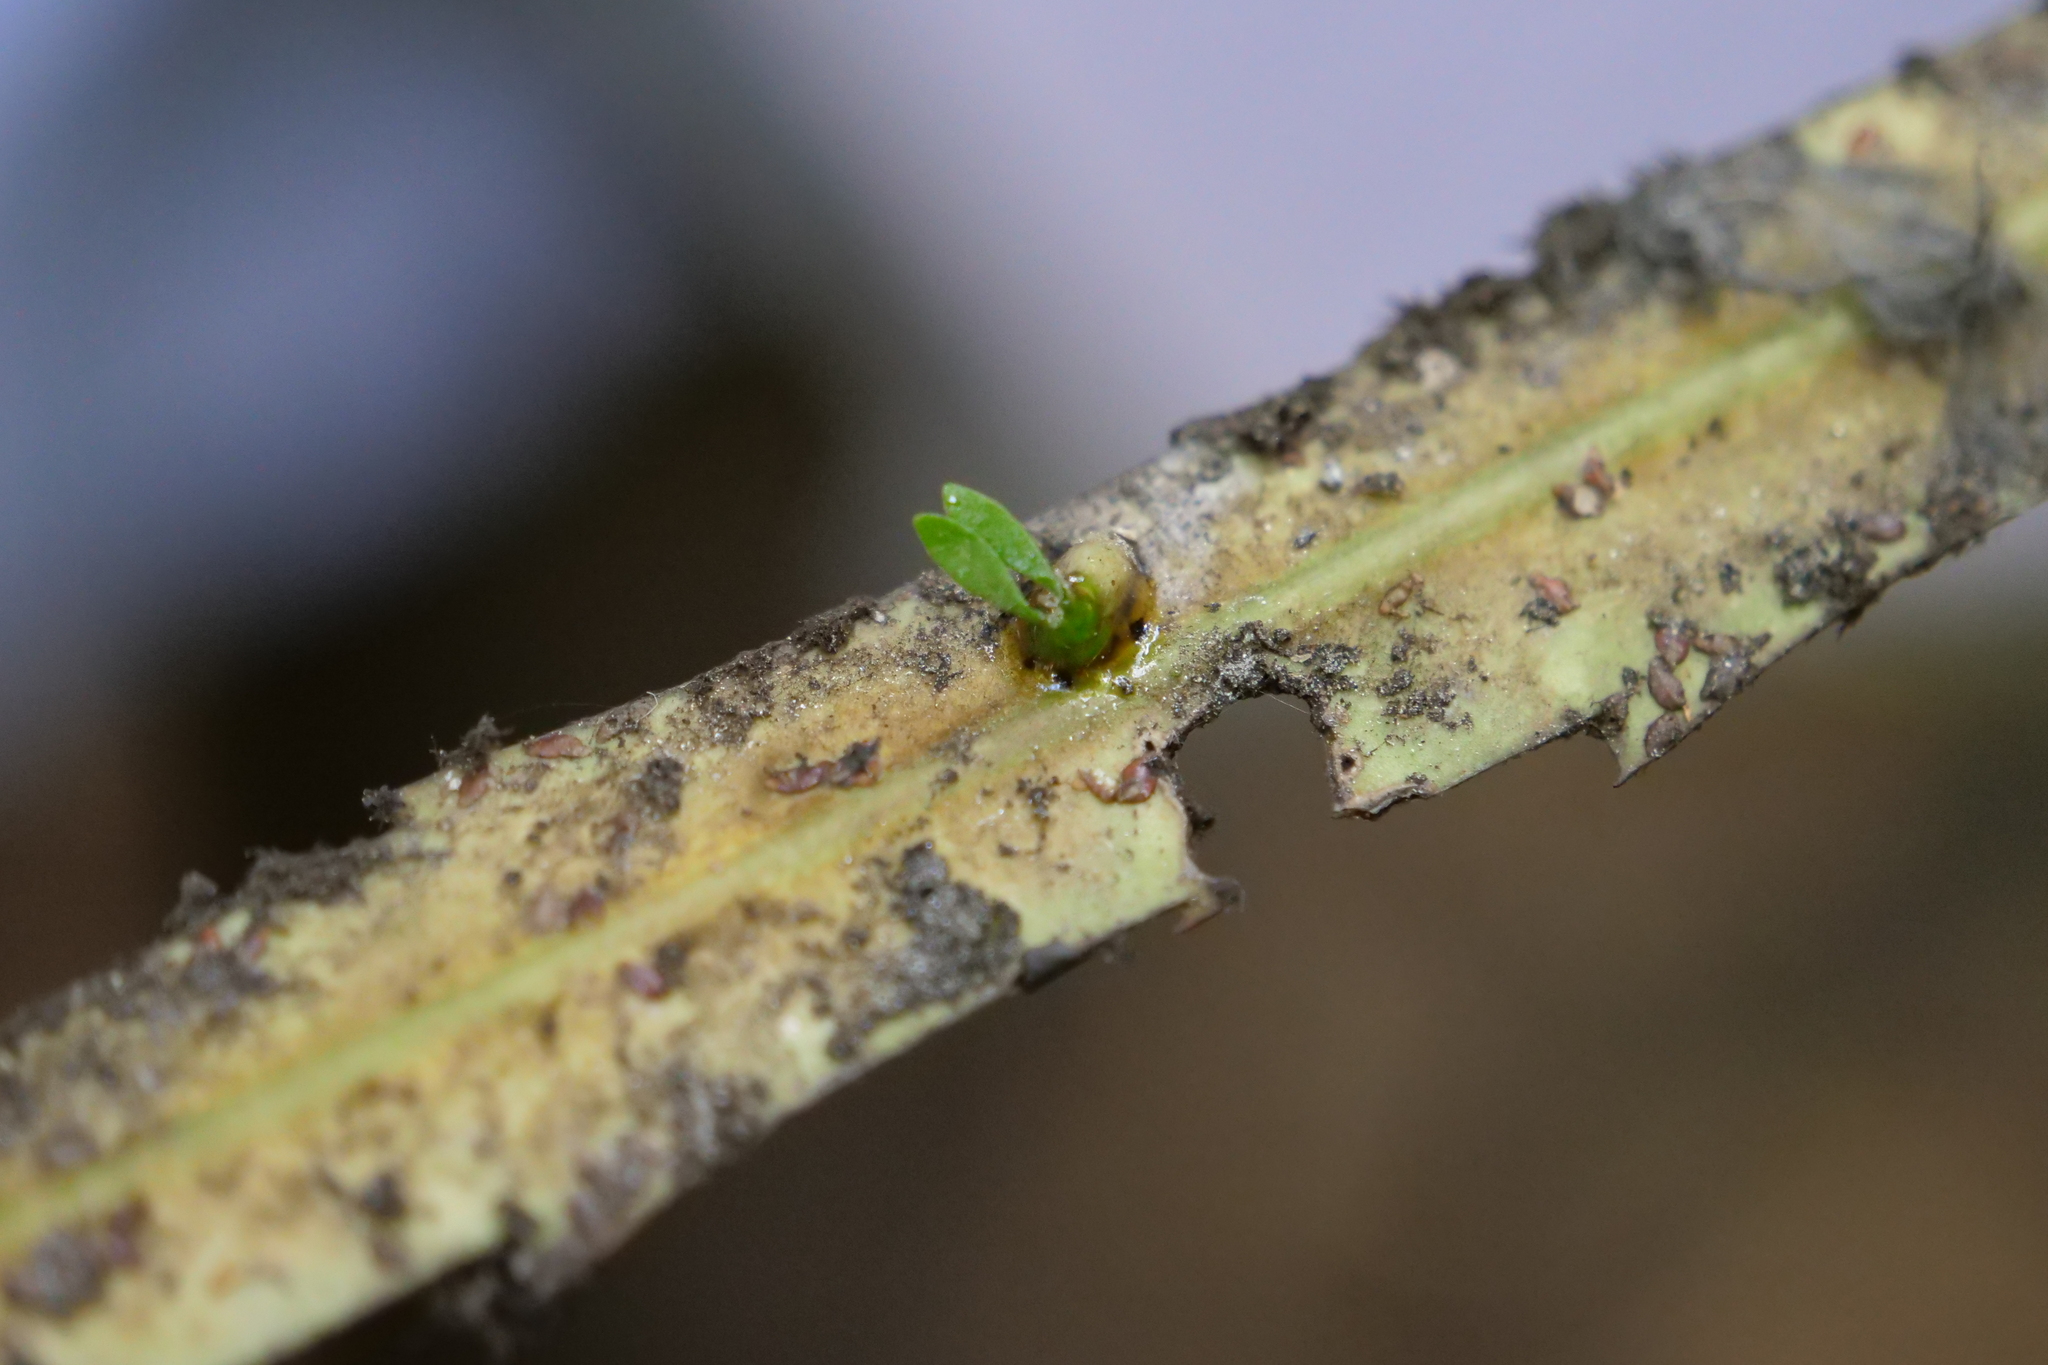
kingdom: Plantae
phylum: Tracheophyta
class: Magnoliopsida
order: Santalales
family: Loranthaceae
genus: Ileostylus
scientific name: Ileostylus micranthus
